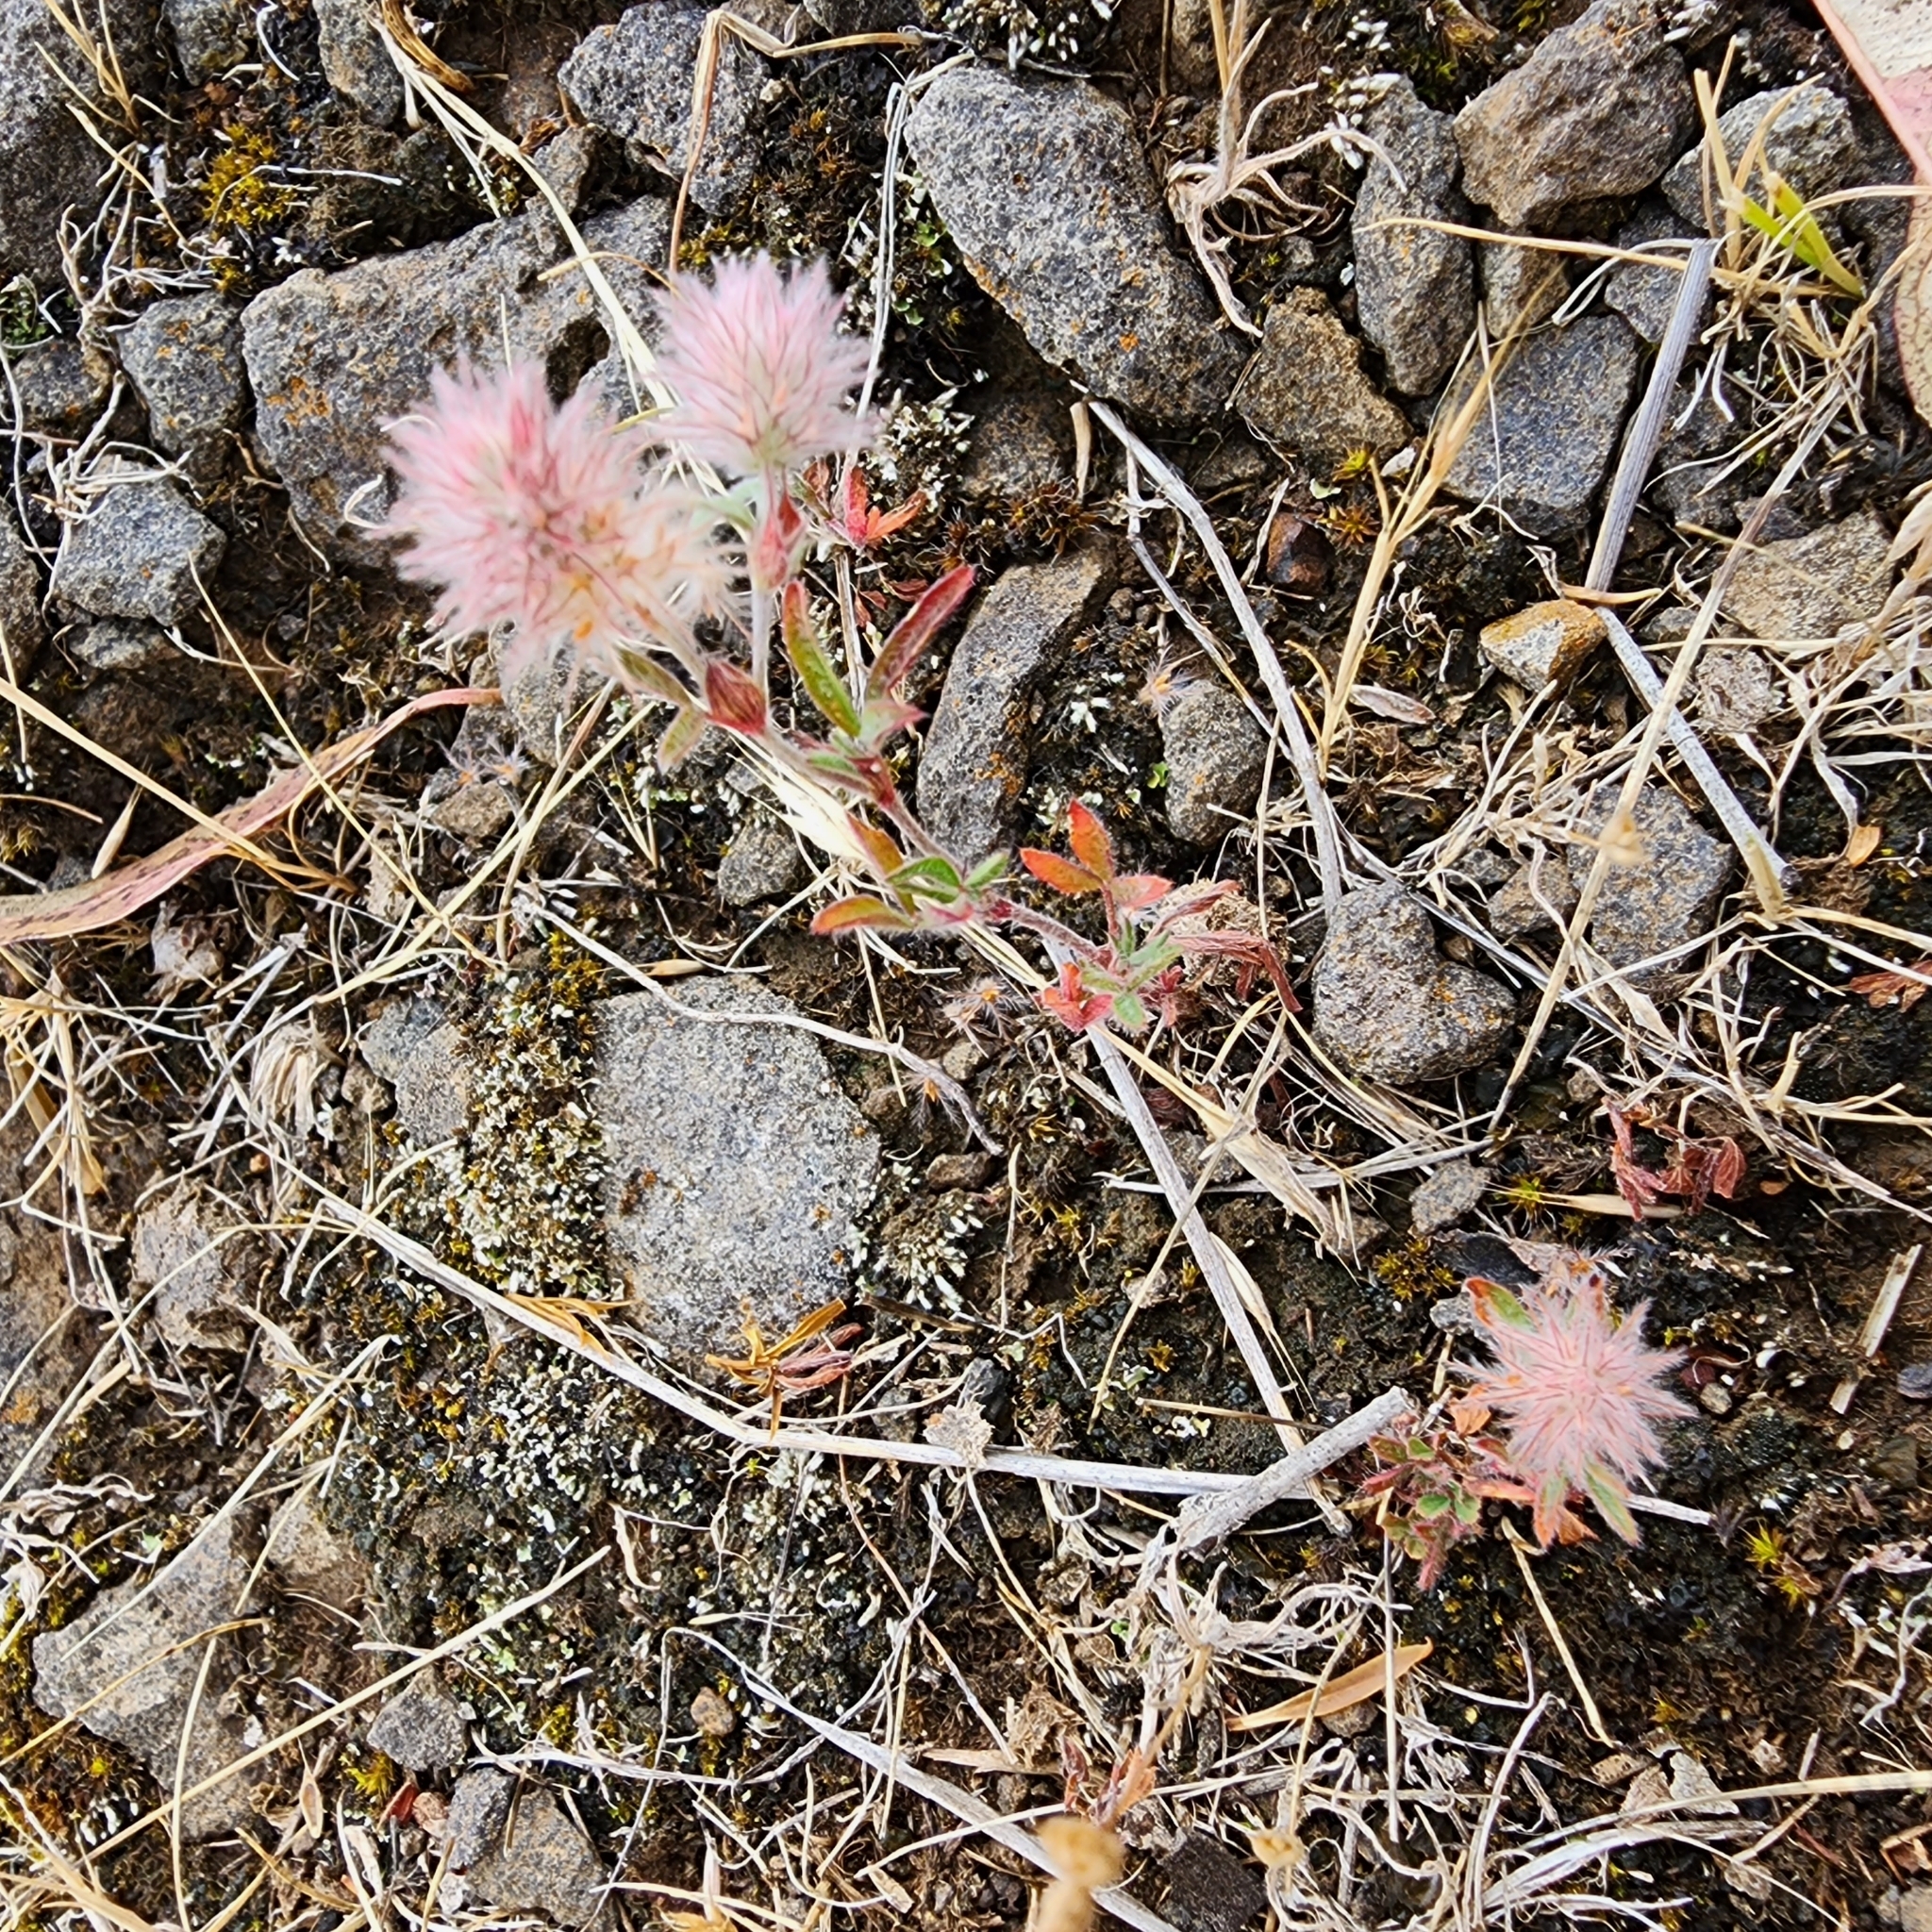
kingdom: Plantae
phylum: Tracheophyta
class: Magnoliopsida
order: Fabales
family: Fabaceae
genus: Trifolium
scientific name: Trifolium arvense
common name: Hare's-foot clover
